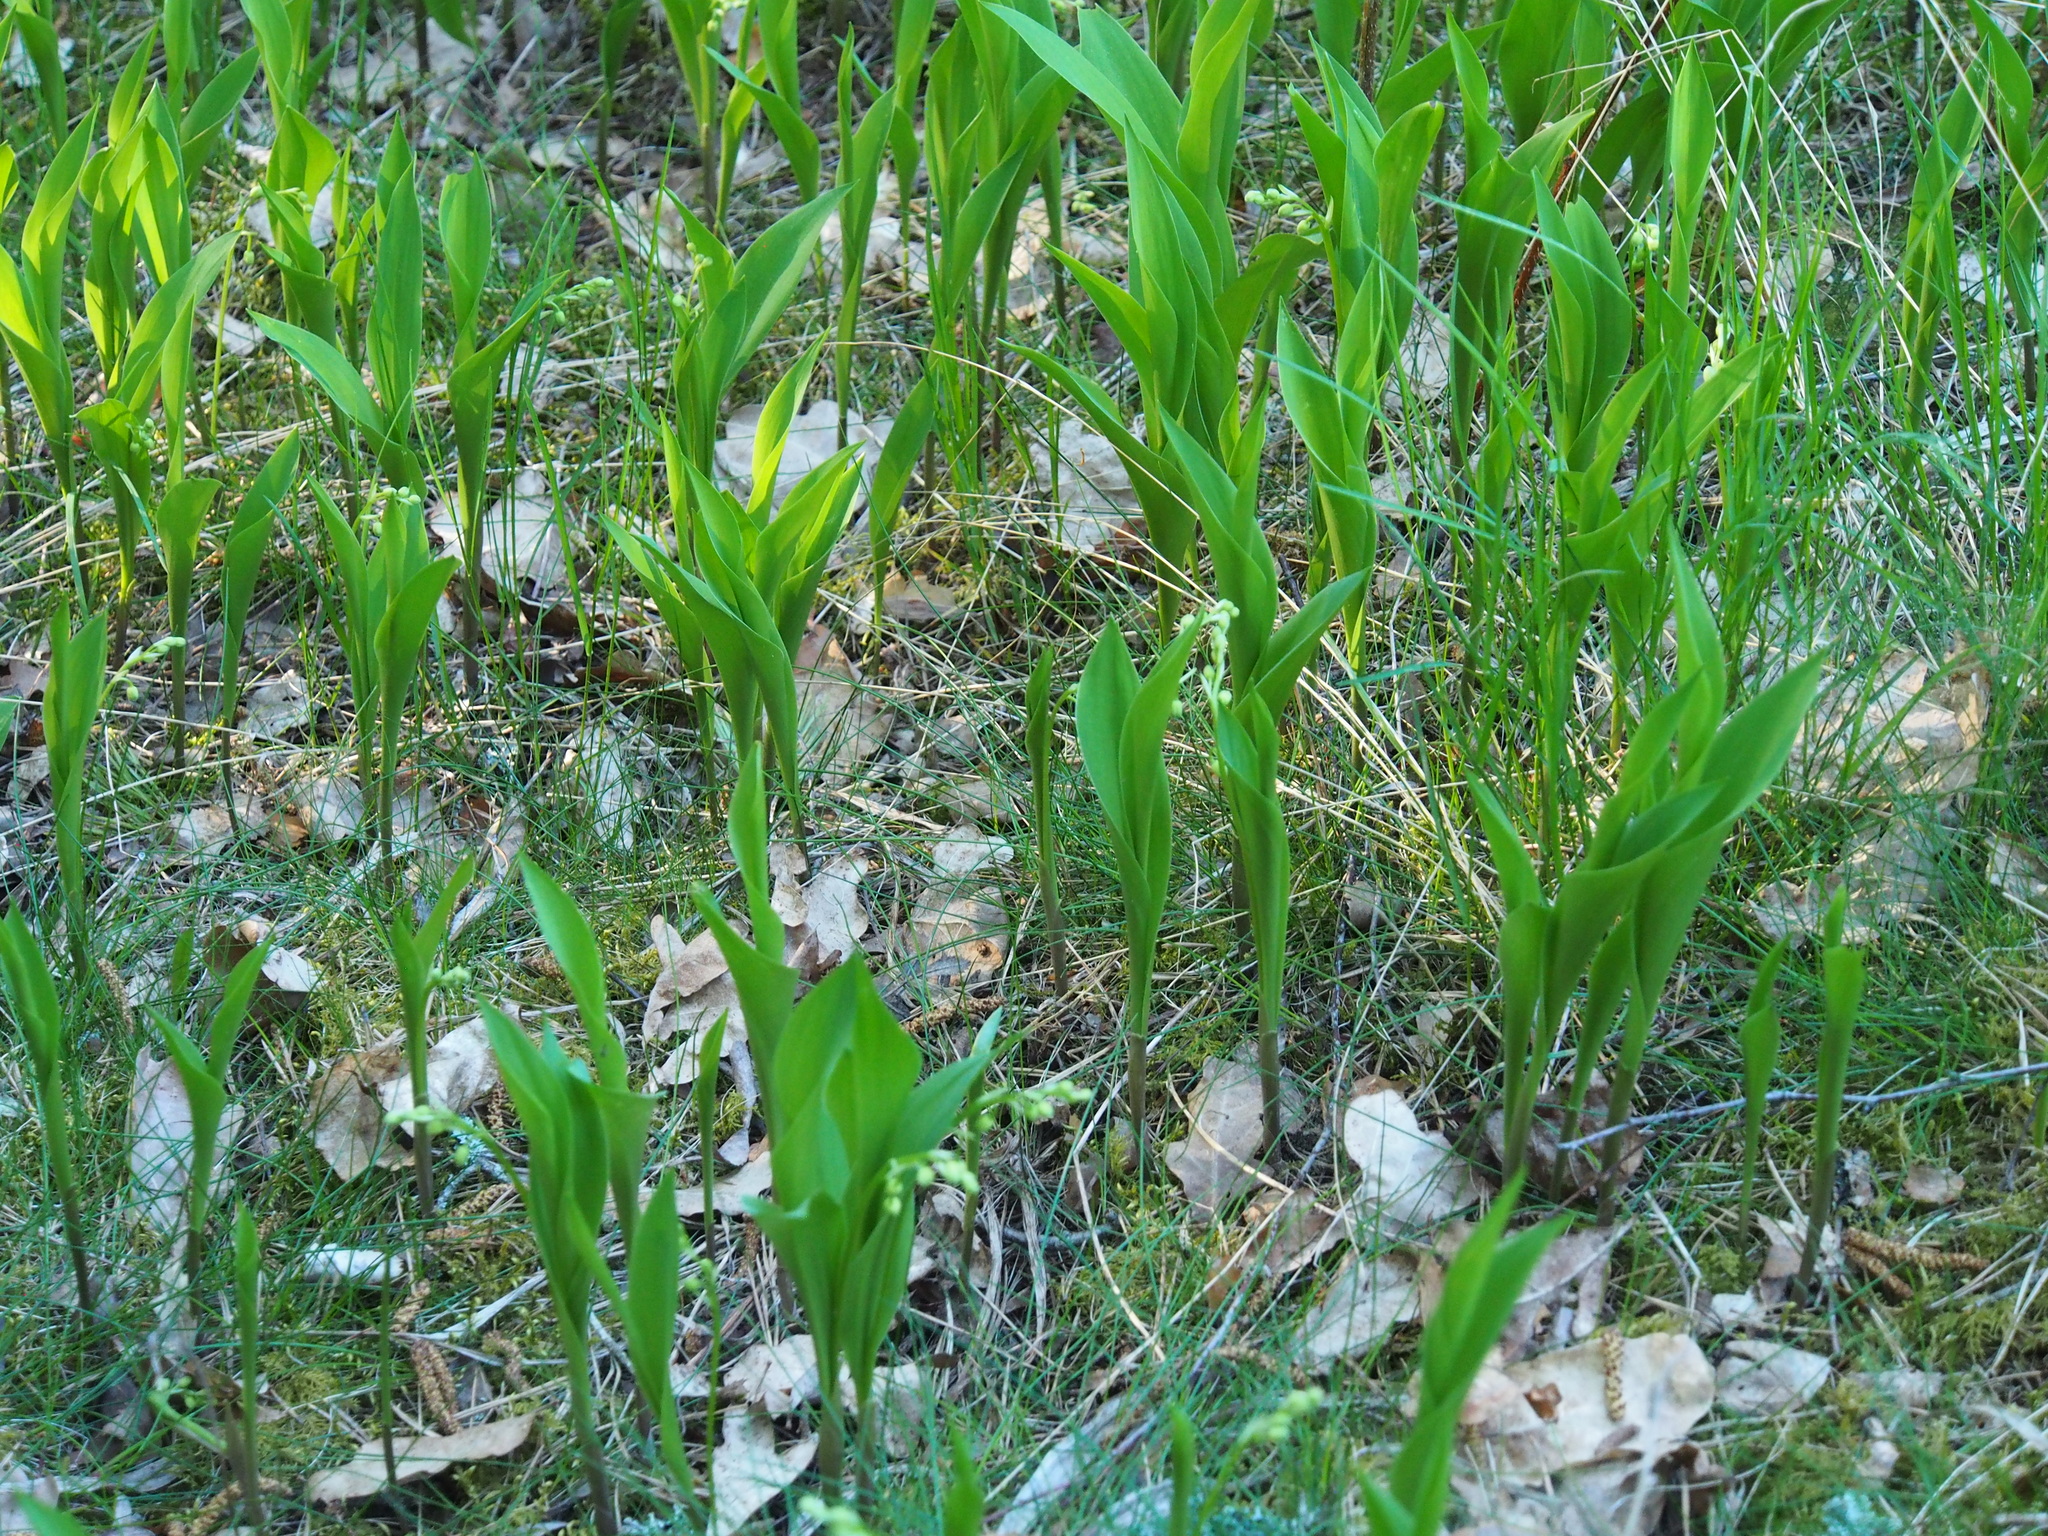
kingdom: Plantae
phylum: Tracheophyta
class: Liliopsida
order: Asparagales
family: Asparagaceae
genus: Convallaria
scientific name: Convallaria majalis
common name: Lily-of-the-valley
